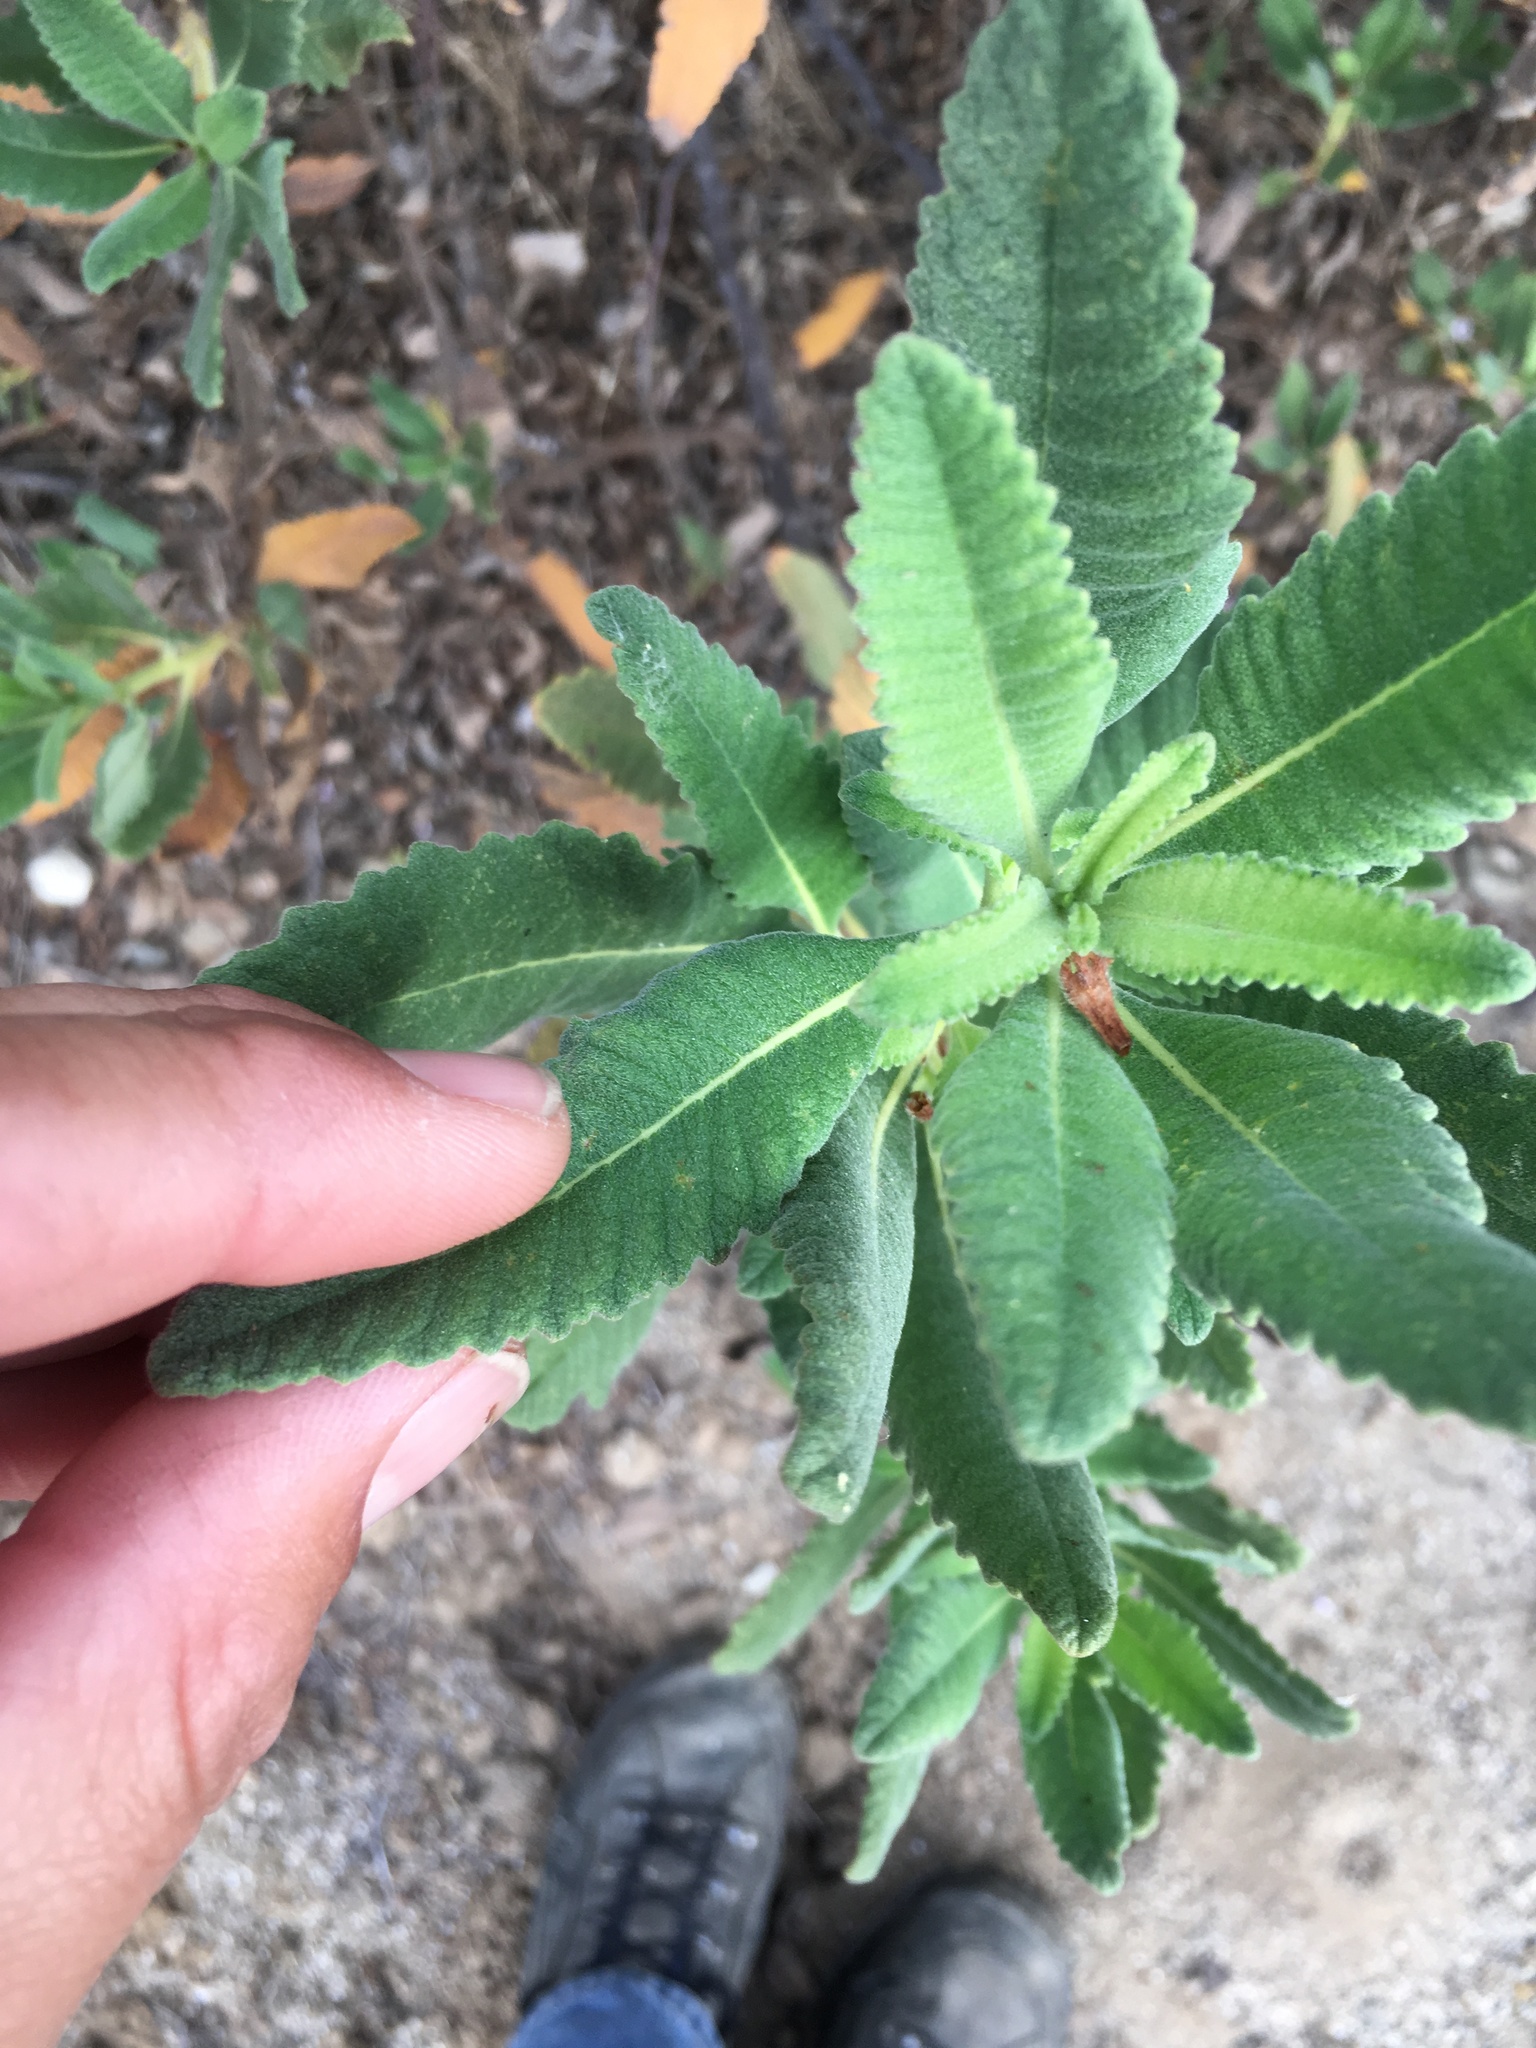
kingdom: Plantae
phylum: Tracheophyta
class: Magnoliopsida
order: Boraginales
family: Namaceae
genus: Eriodictyon
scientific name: Eriodictyon crassifolium
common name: Thick-leaf yerba-santa
